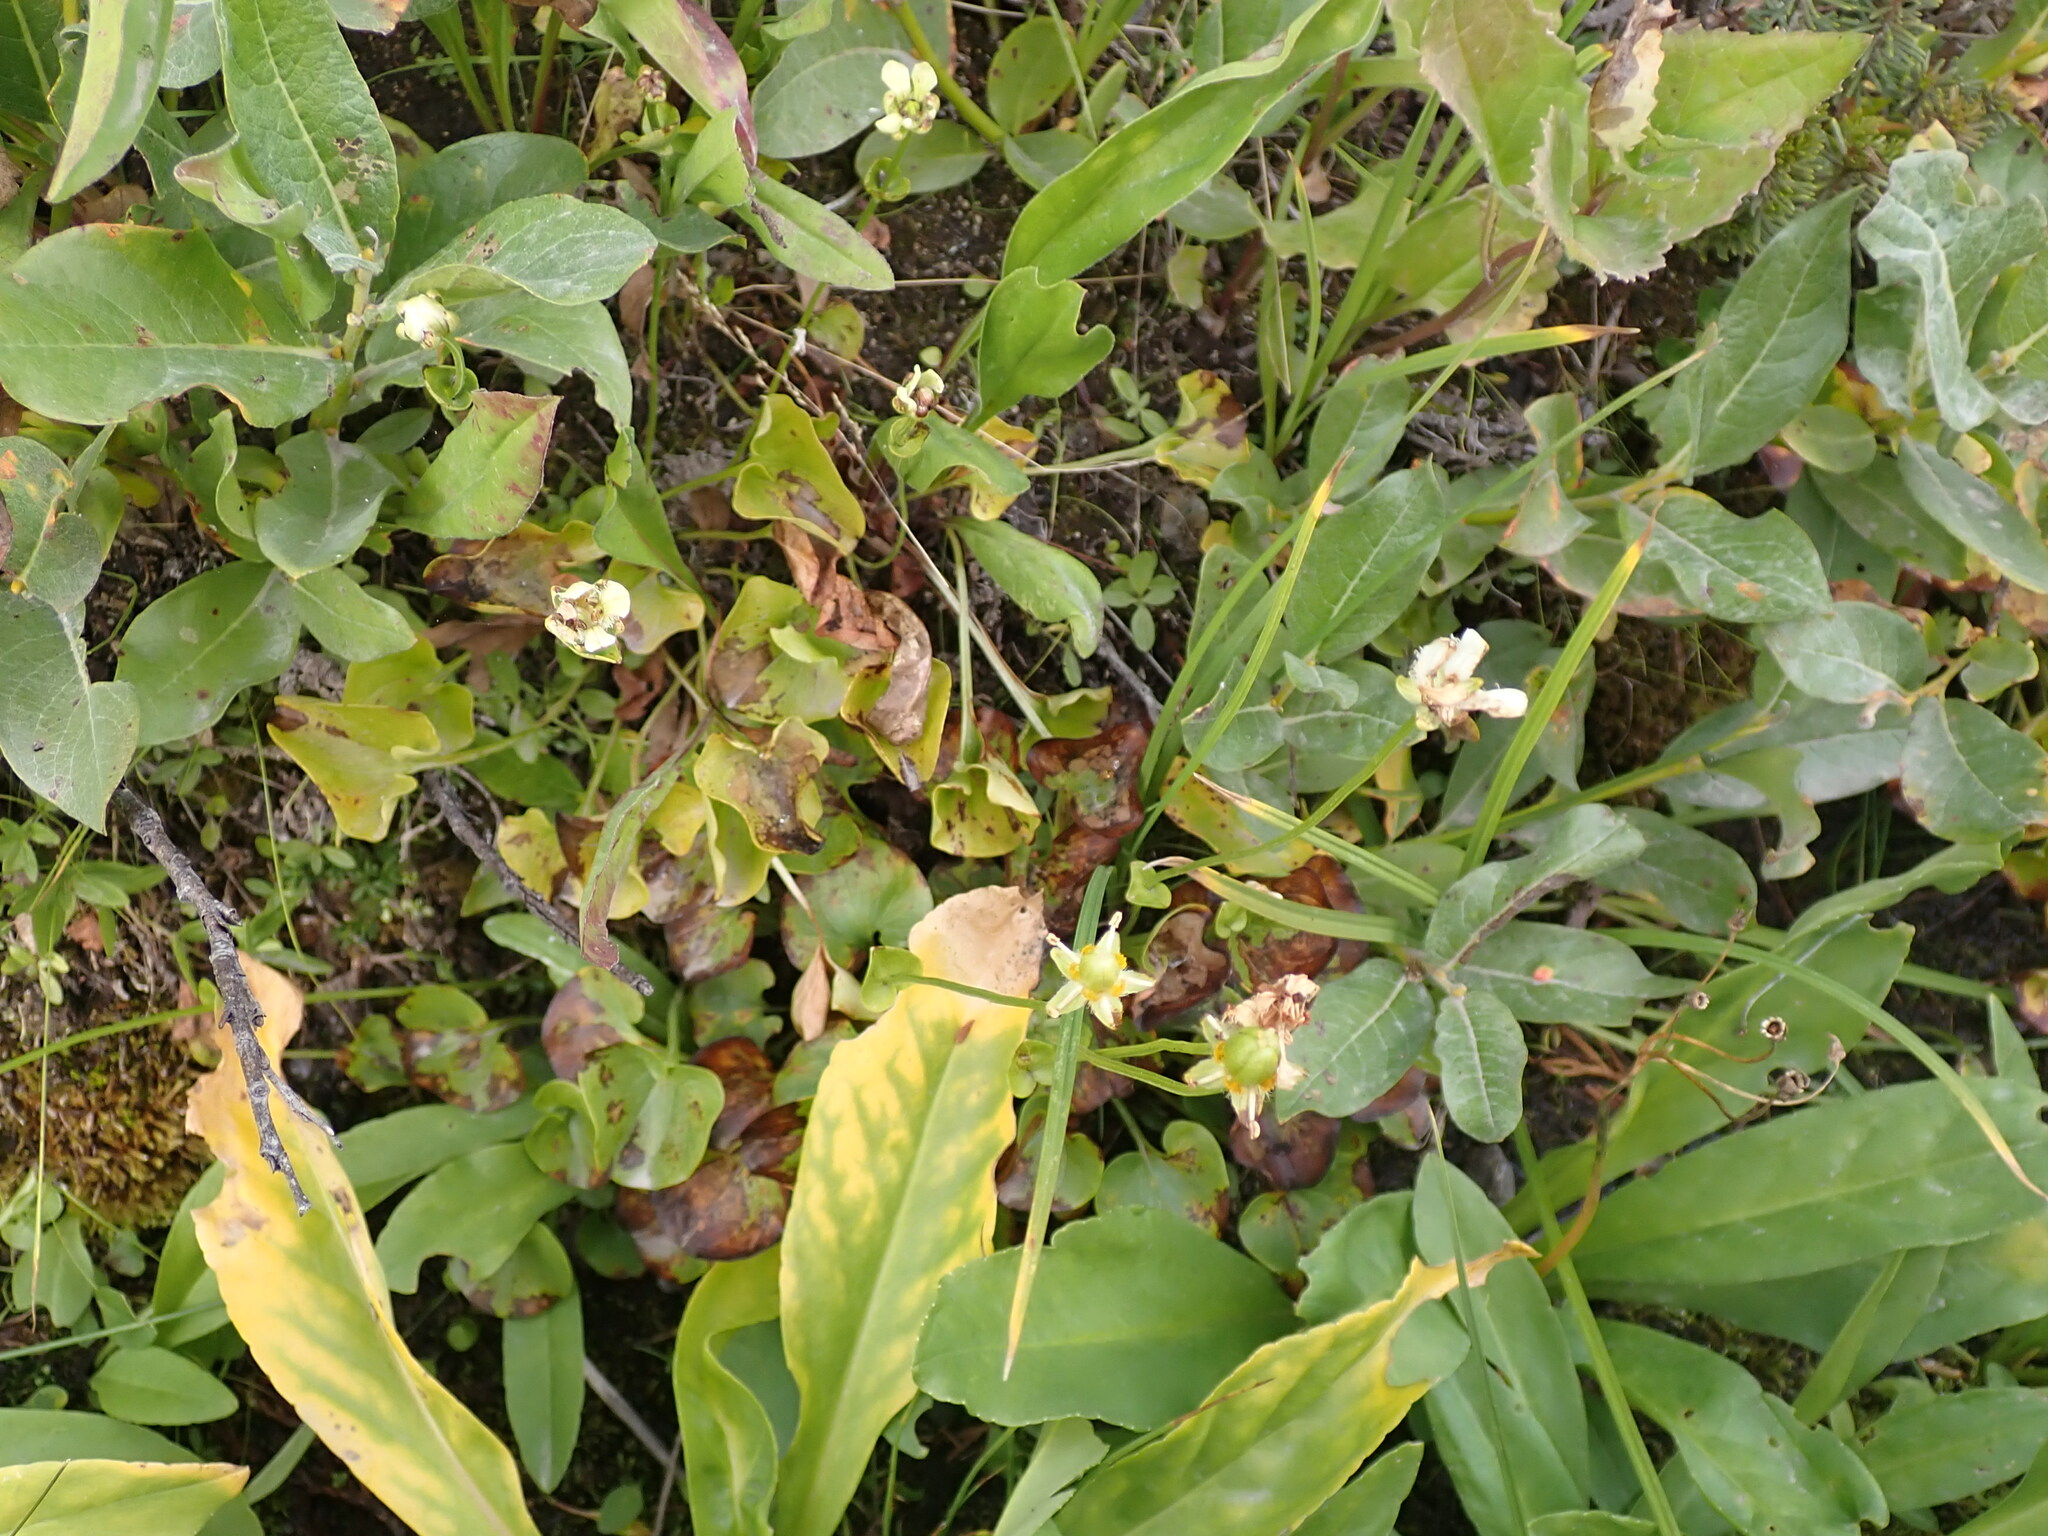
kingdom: Plantae
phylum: Tracheophyta
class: Magnoliopsida
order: Celastrales
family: Parnassiaceae
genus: Parnassia
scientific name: Parnassia fimbriata
